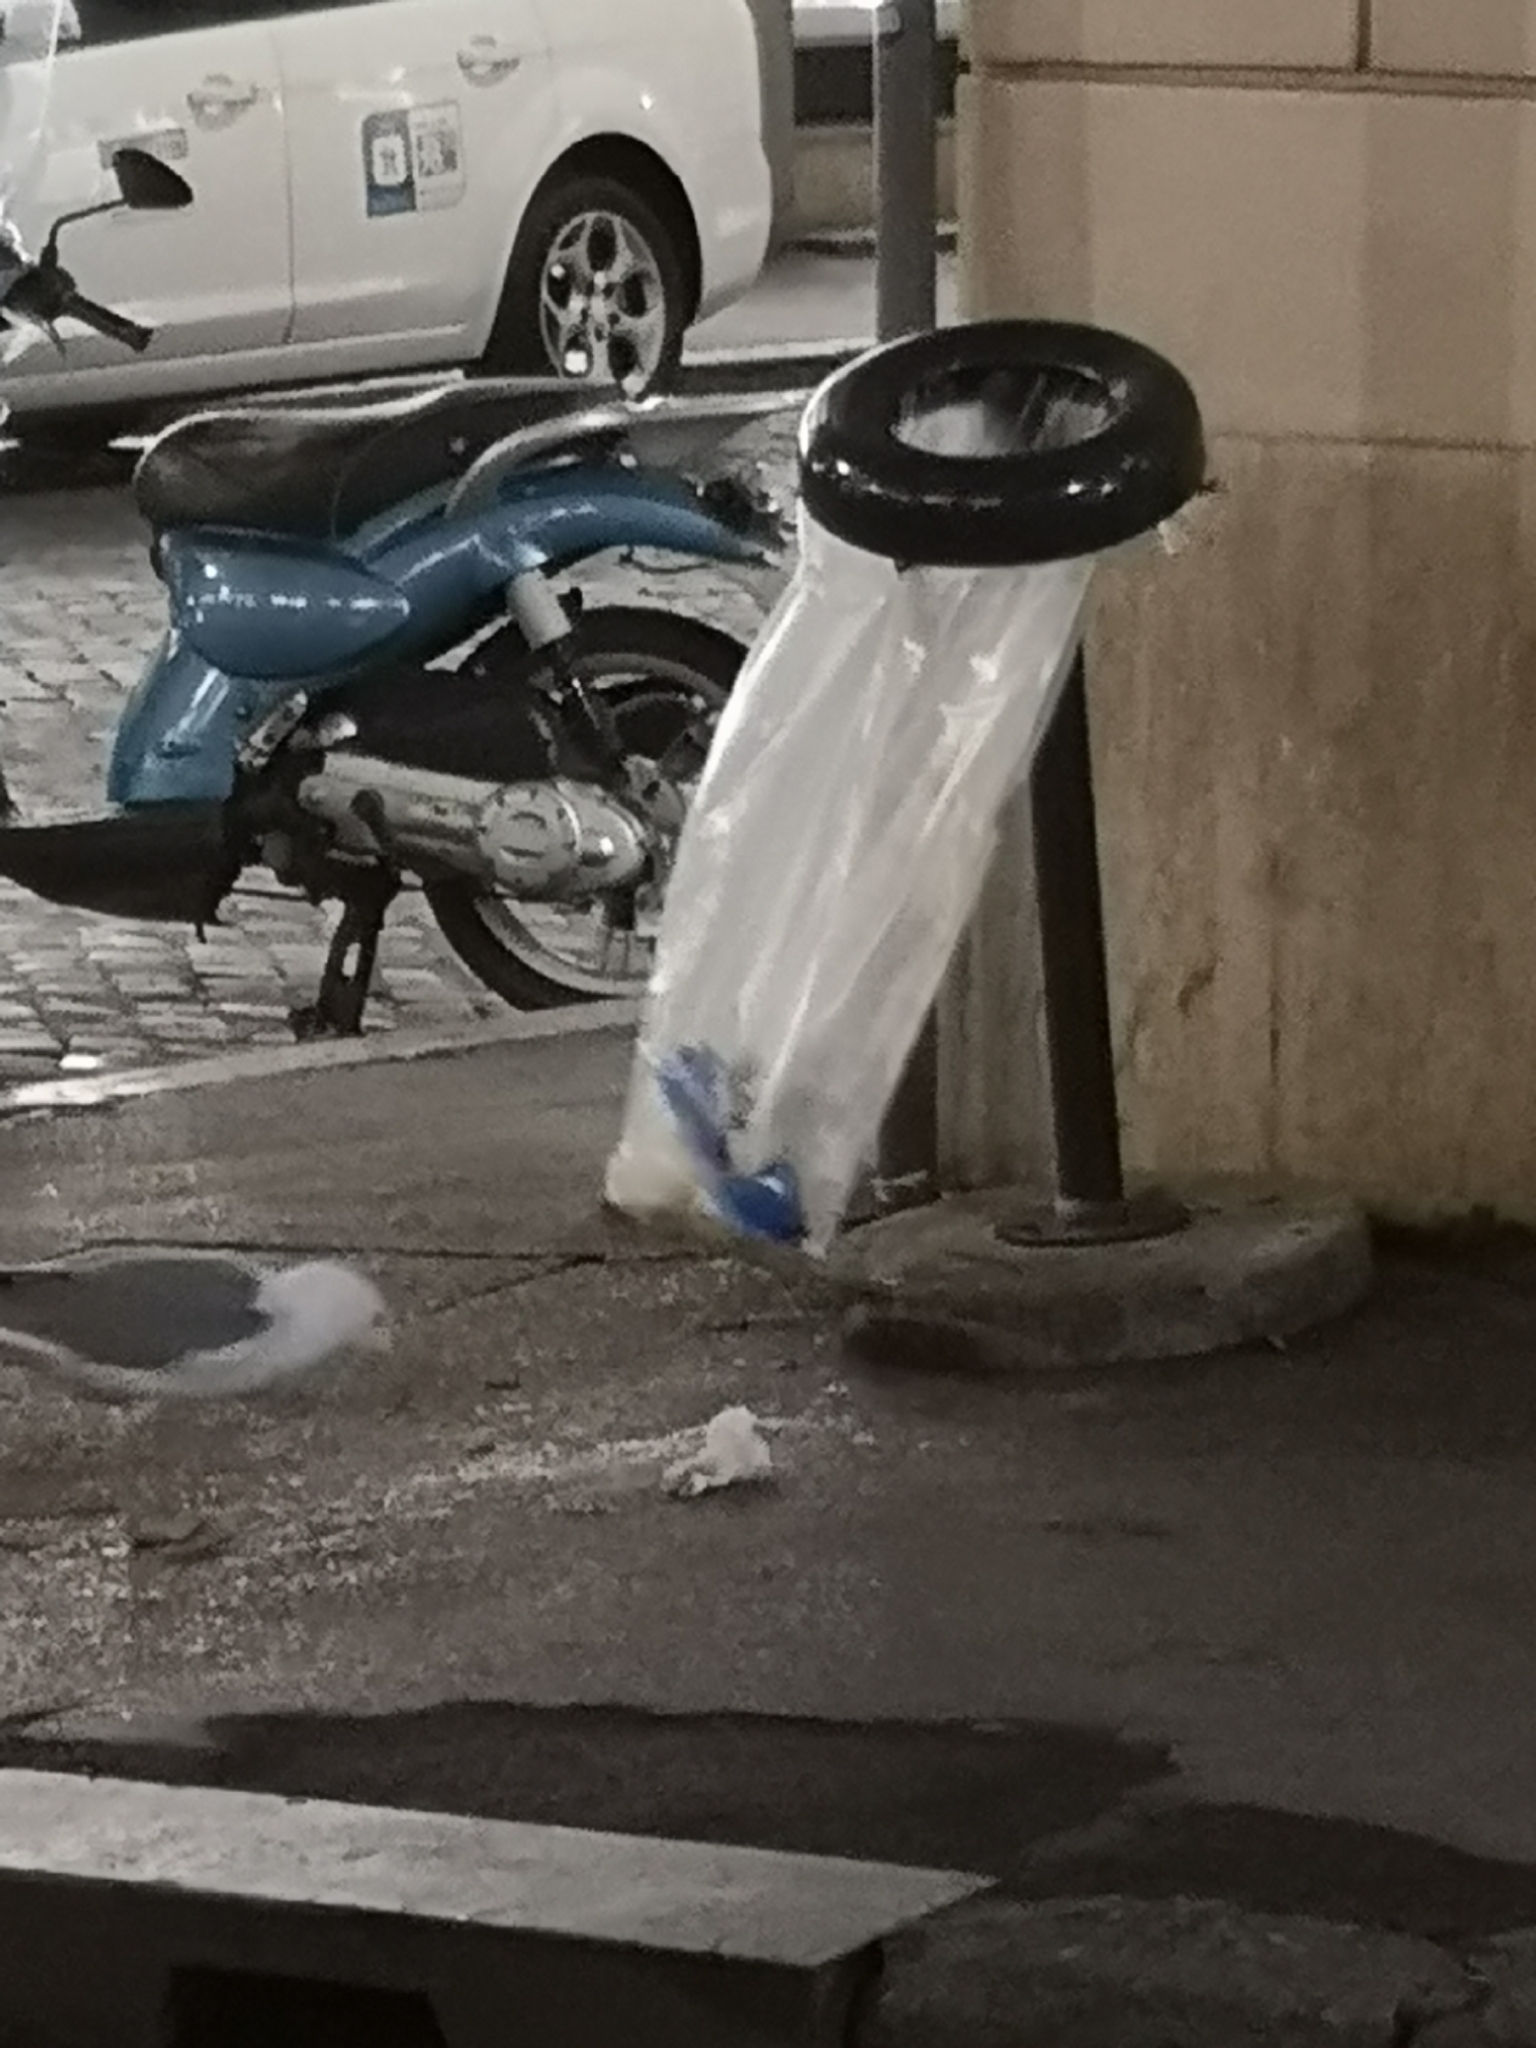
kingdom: Animalia
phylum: Chordata
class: Aves
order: Charadriiformes
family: Laridae
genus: Larus
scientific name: Larus michahellis
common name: Yellow-legged gull
